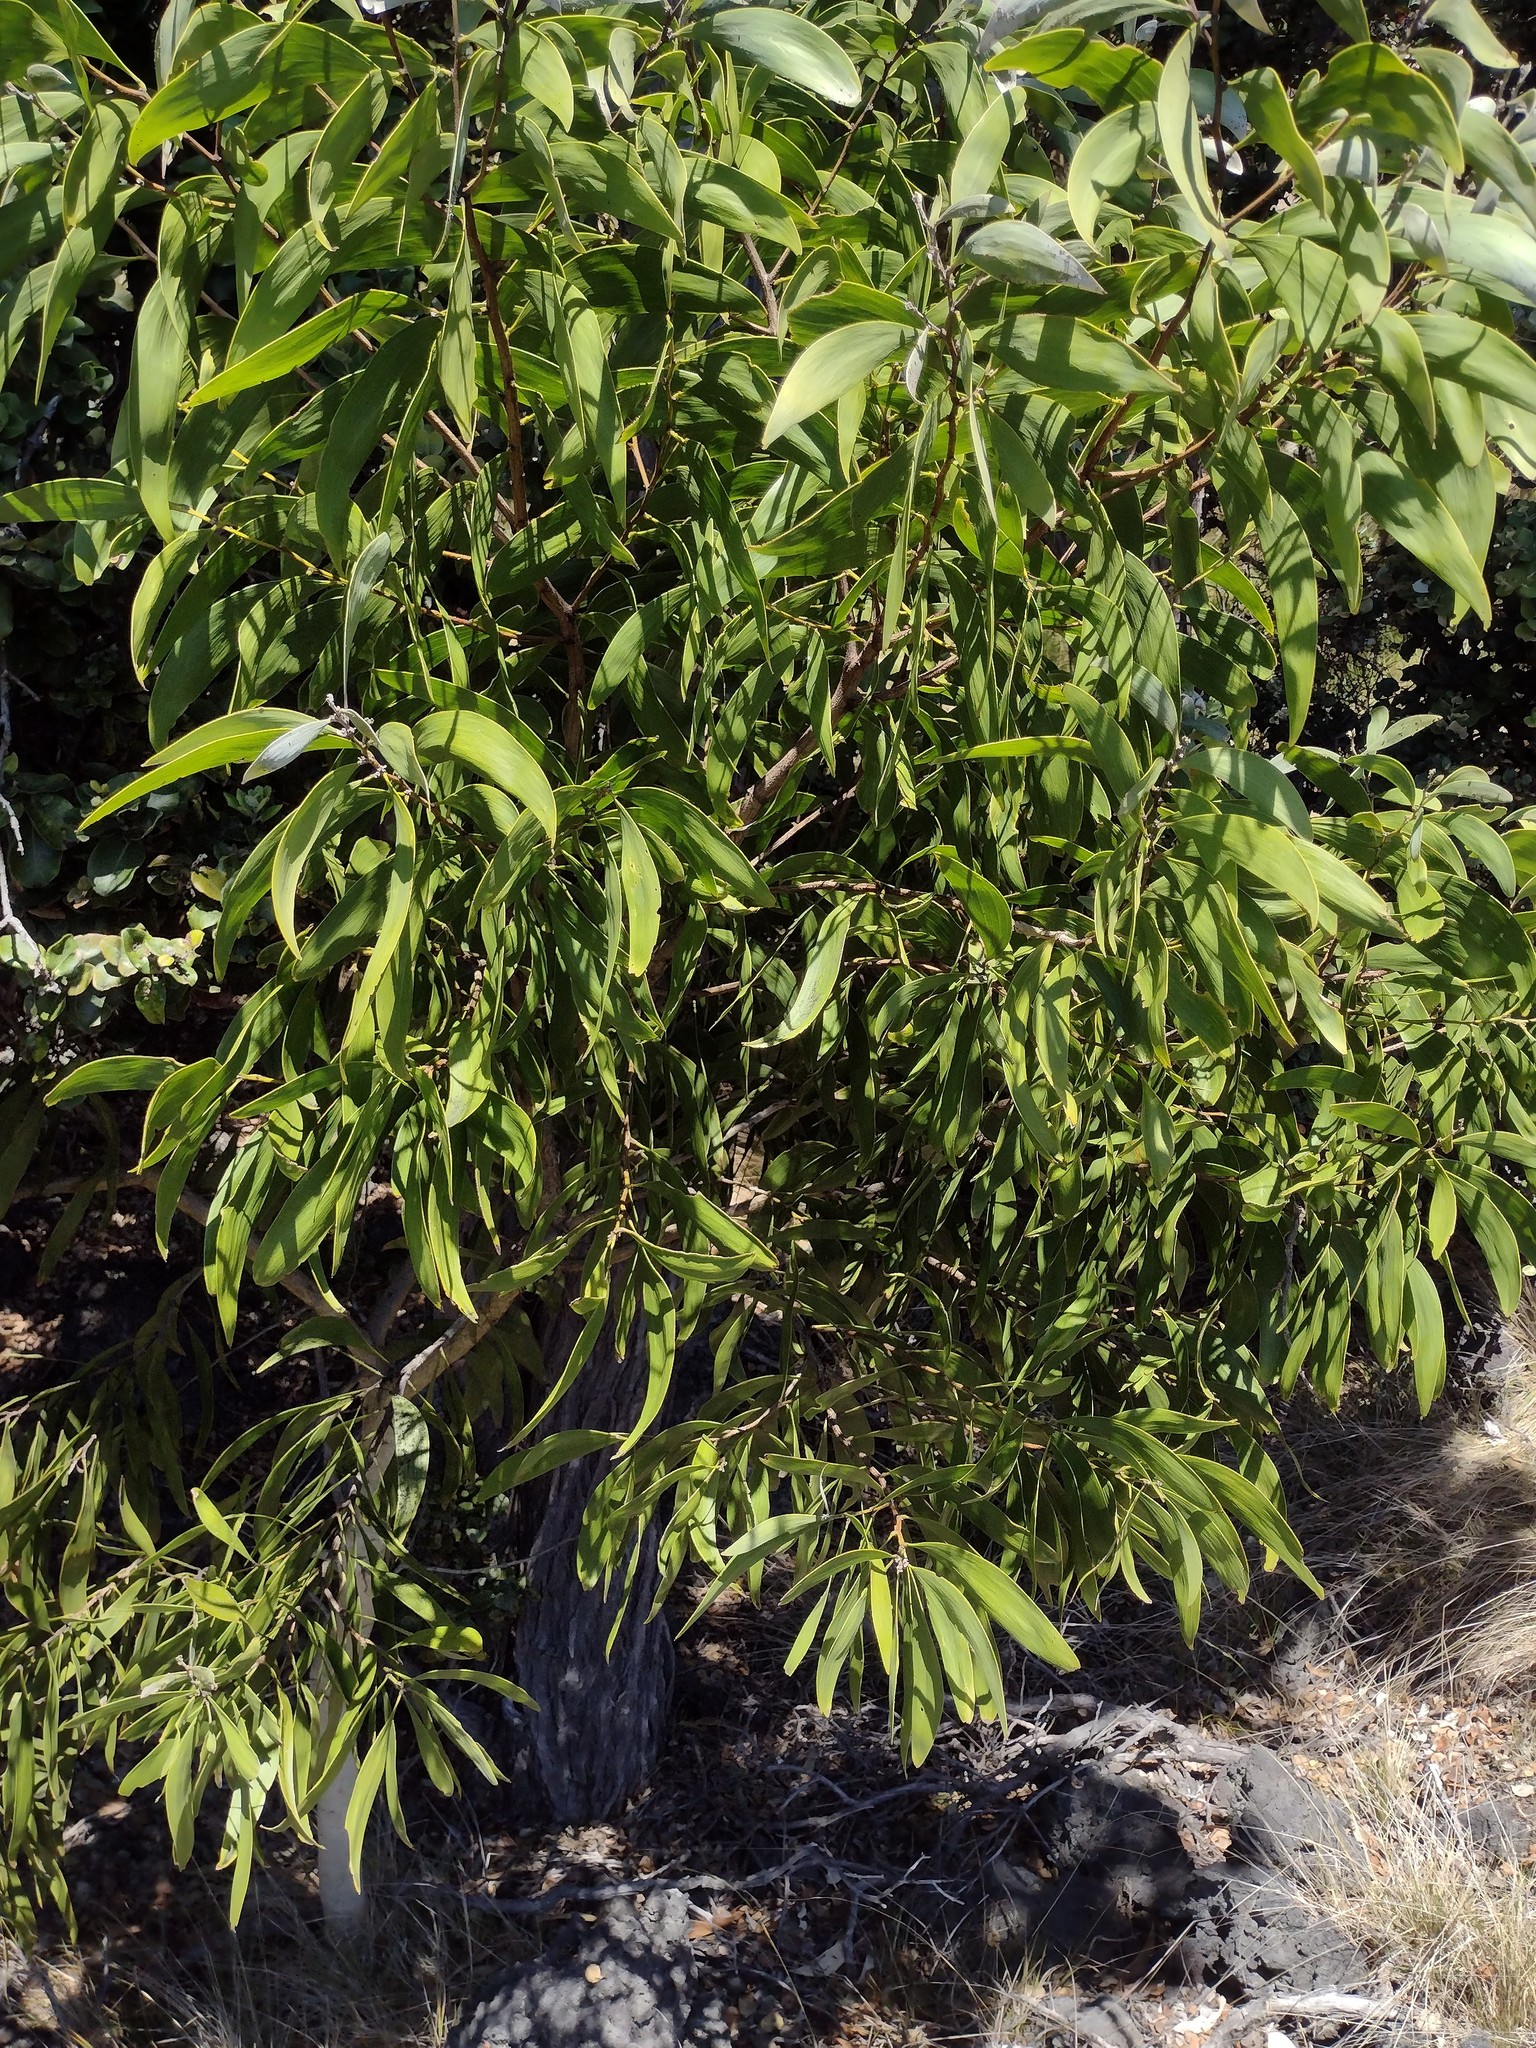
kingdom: Plantae
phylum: Tracheophyta
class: Magnoliopsida
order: Fabales
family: Fabaceae
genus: Acacia
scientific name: Acacia koa
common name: Gray koa
